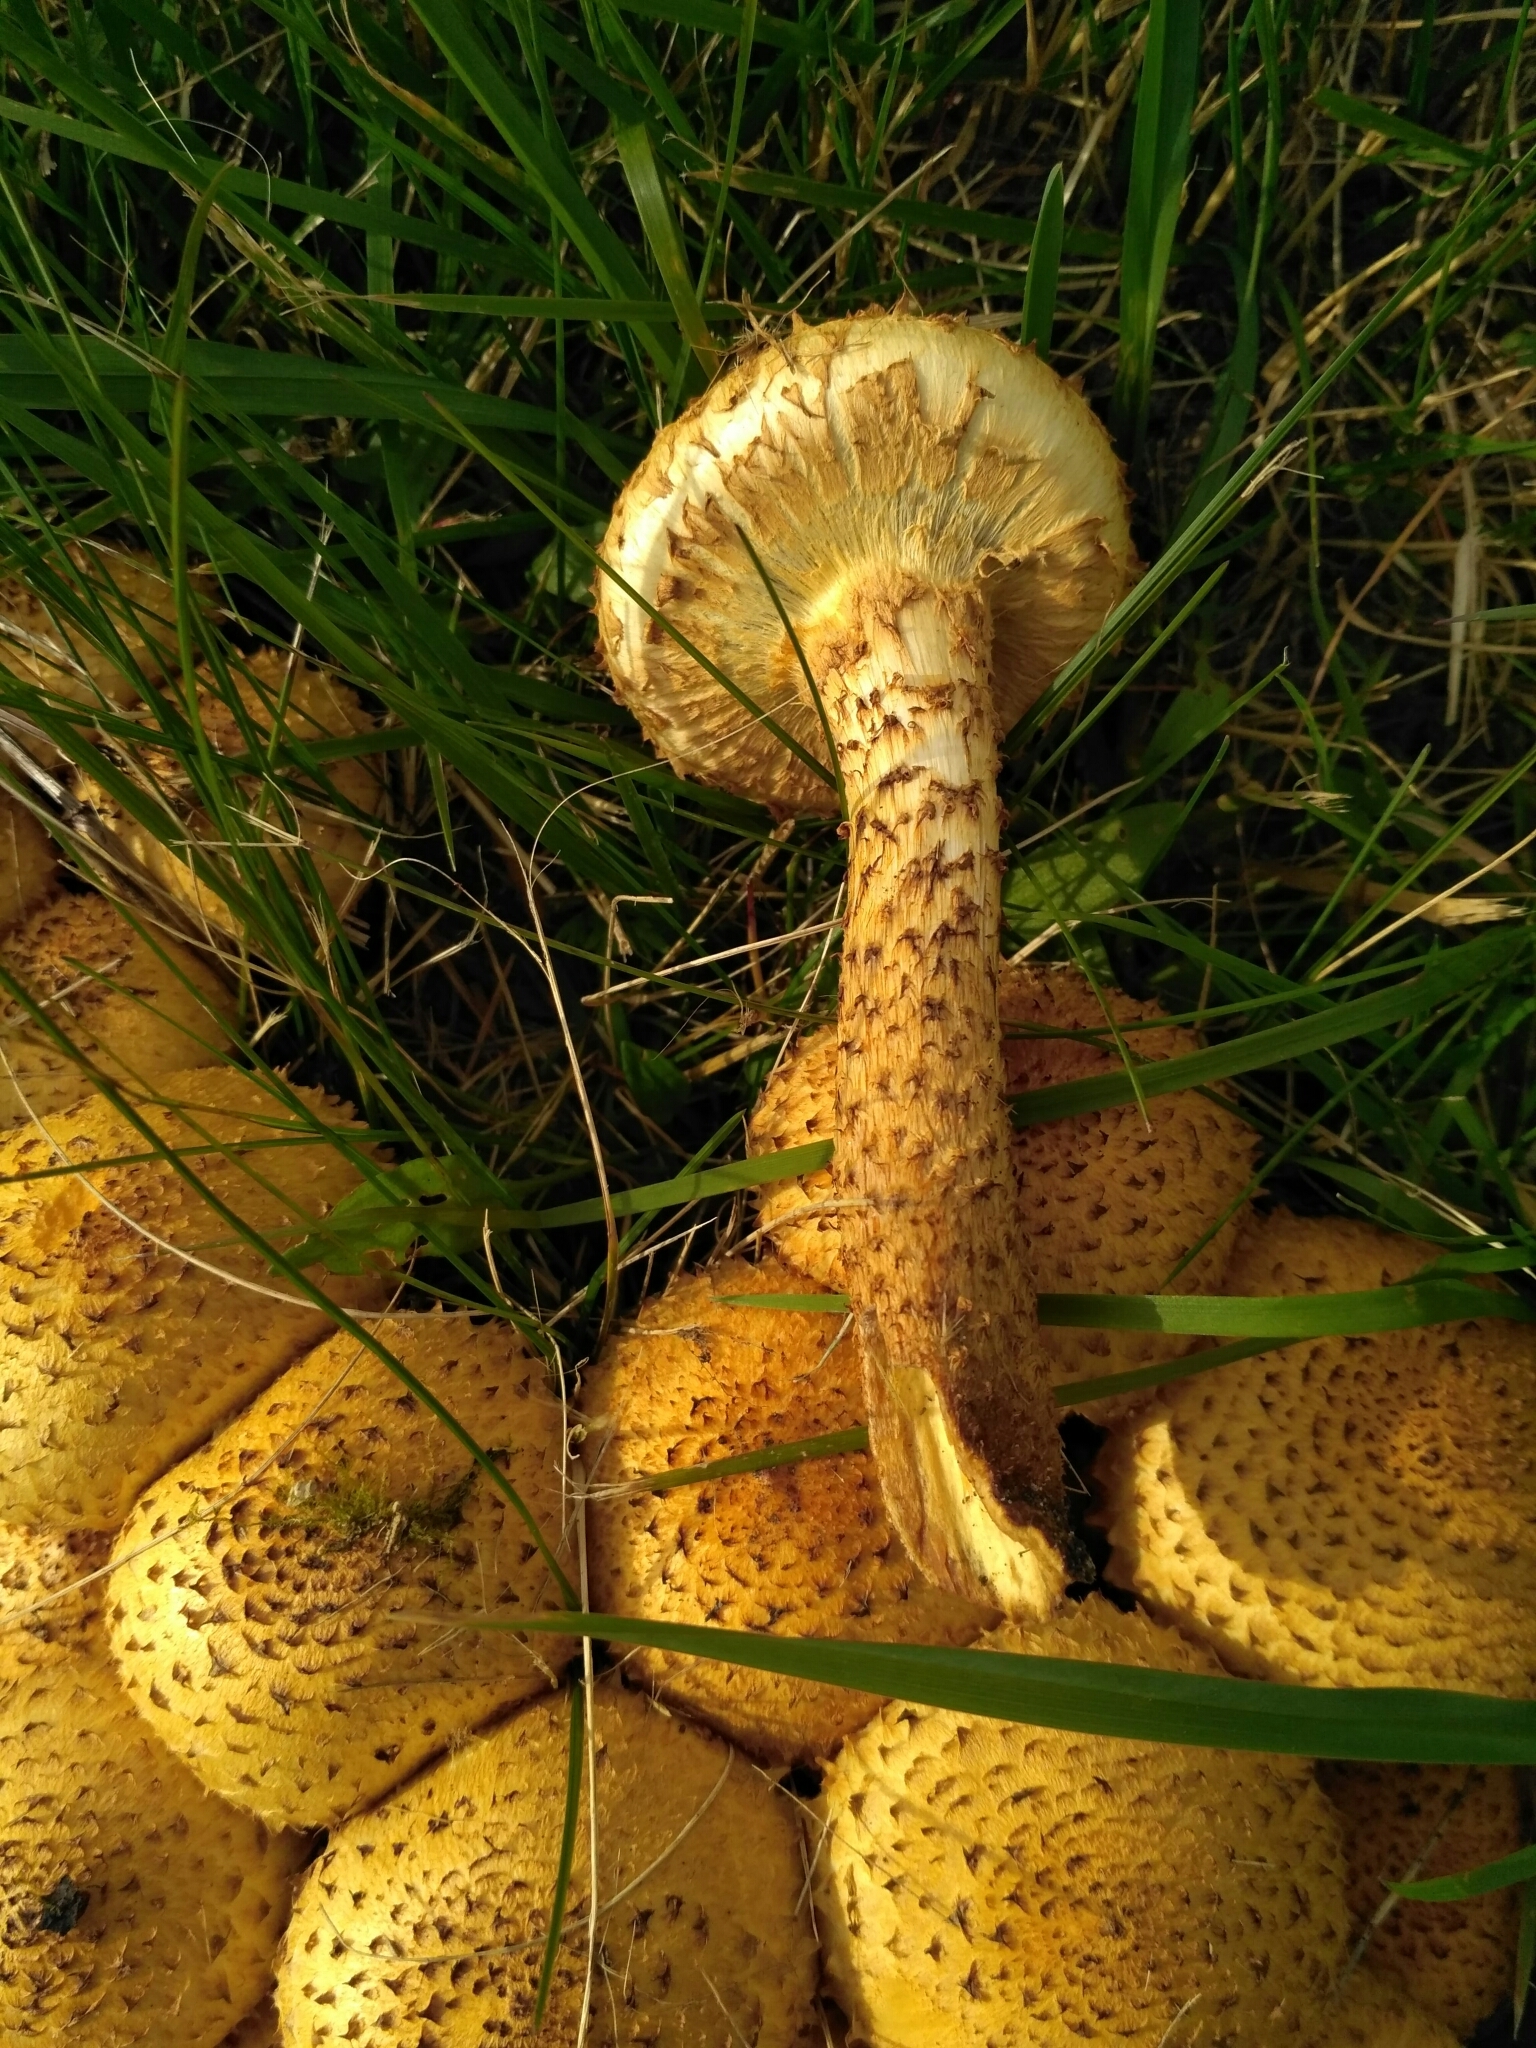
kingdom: Fungi
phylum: Basidiomycota
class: Agaricomycetes
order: Agaricales
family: Strophariaceae
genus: Pholiota
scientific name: Pholiota kodiakensis
